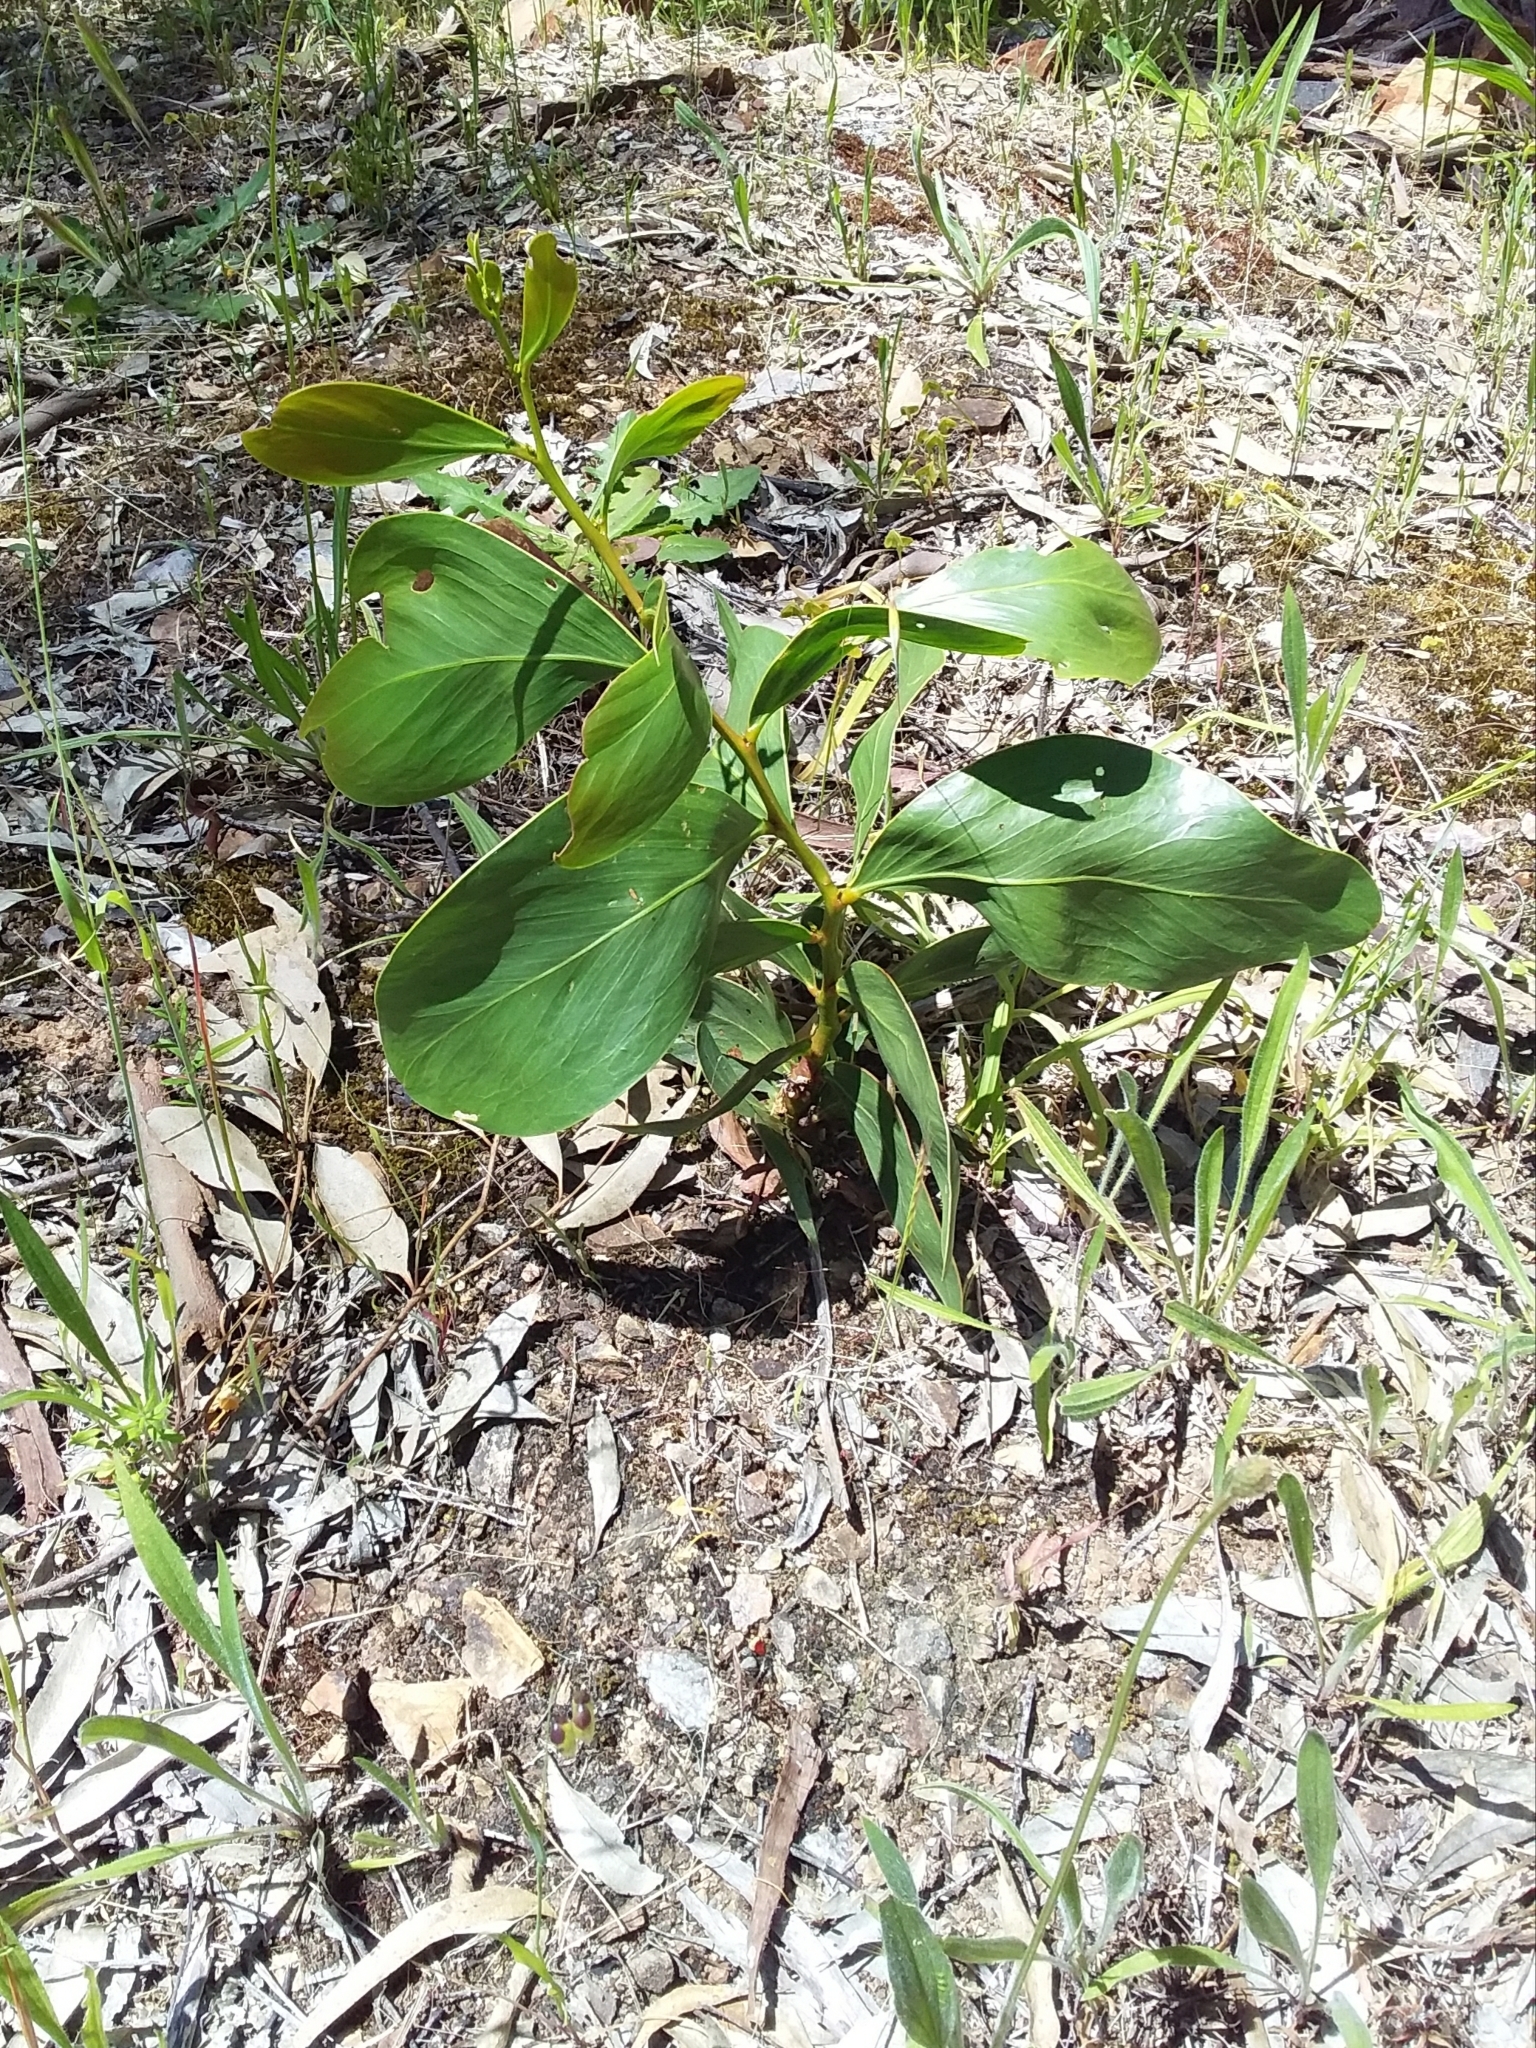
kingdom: Plantae
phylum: Tracheophyta
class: Magnoliopsida
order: Fabales
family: Fabaceae
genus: Acacia
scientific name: Acacia pycnantha
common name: Golden wattle
